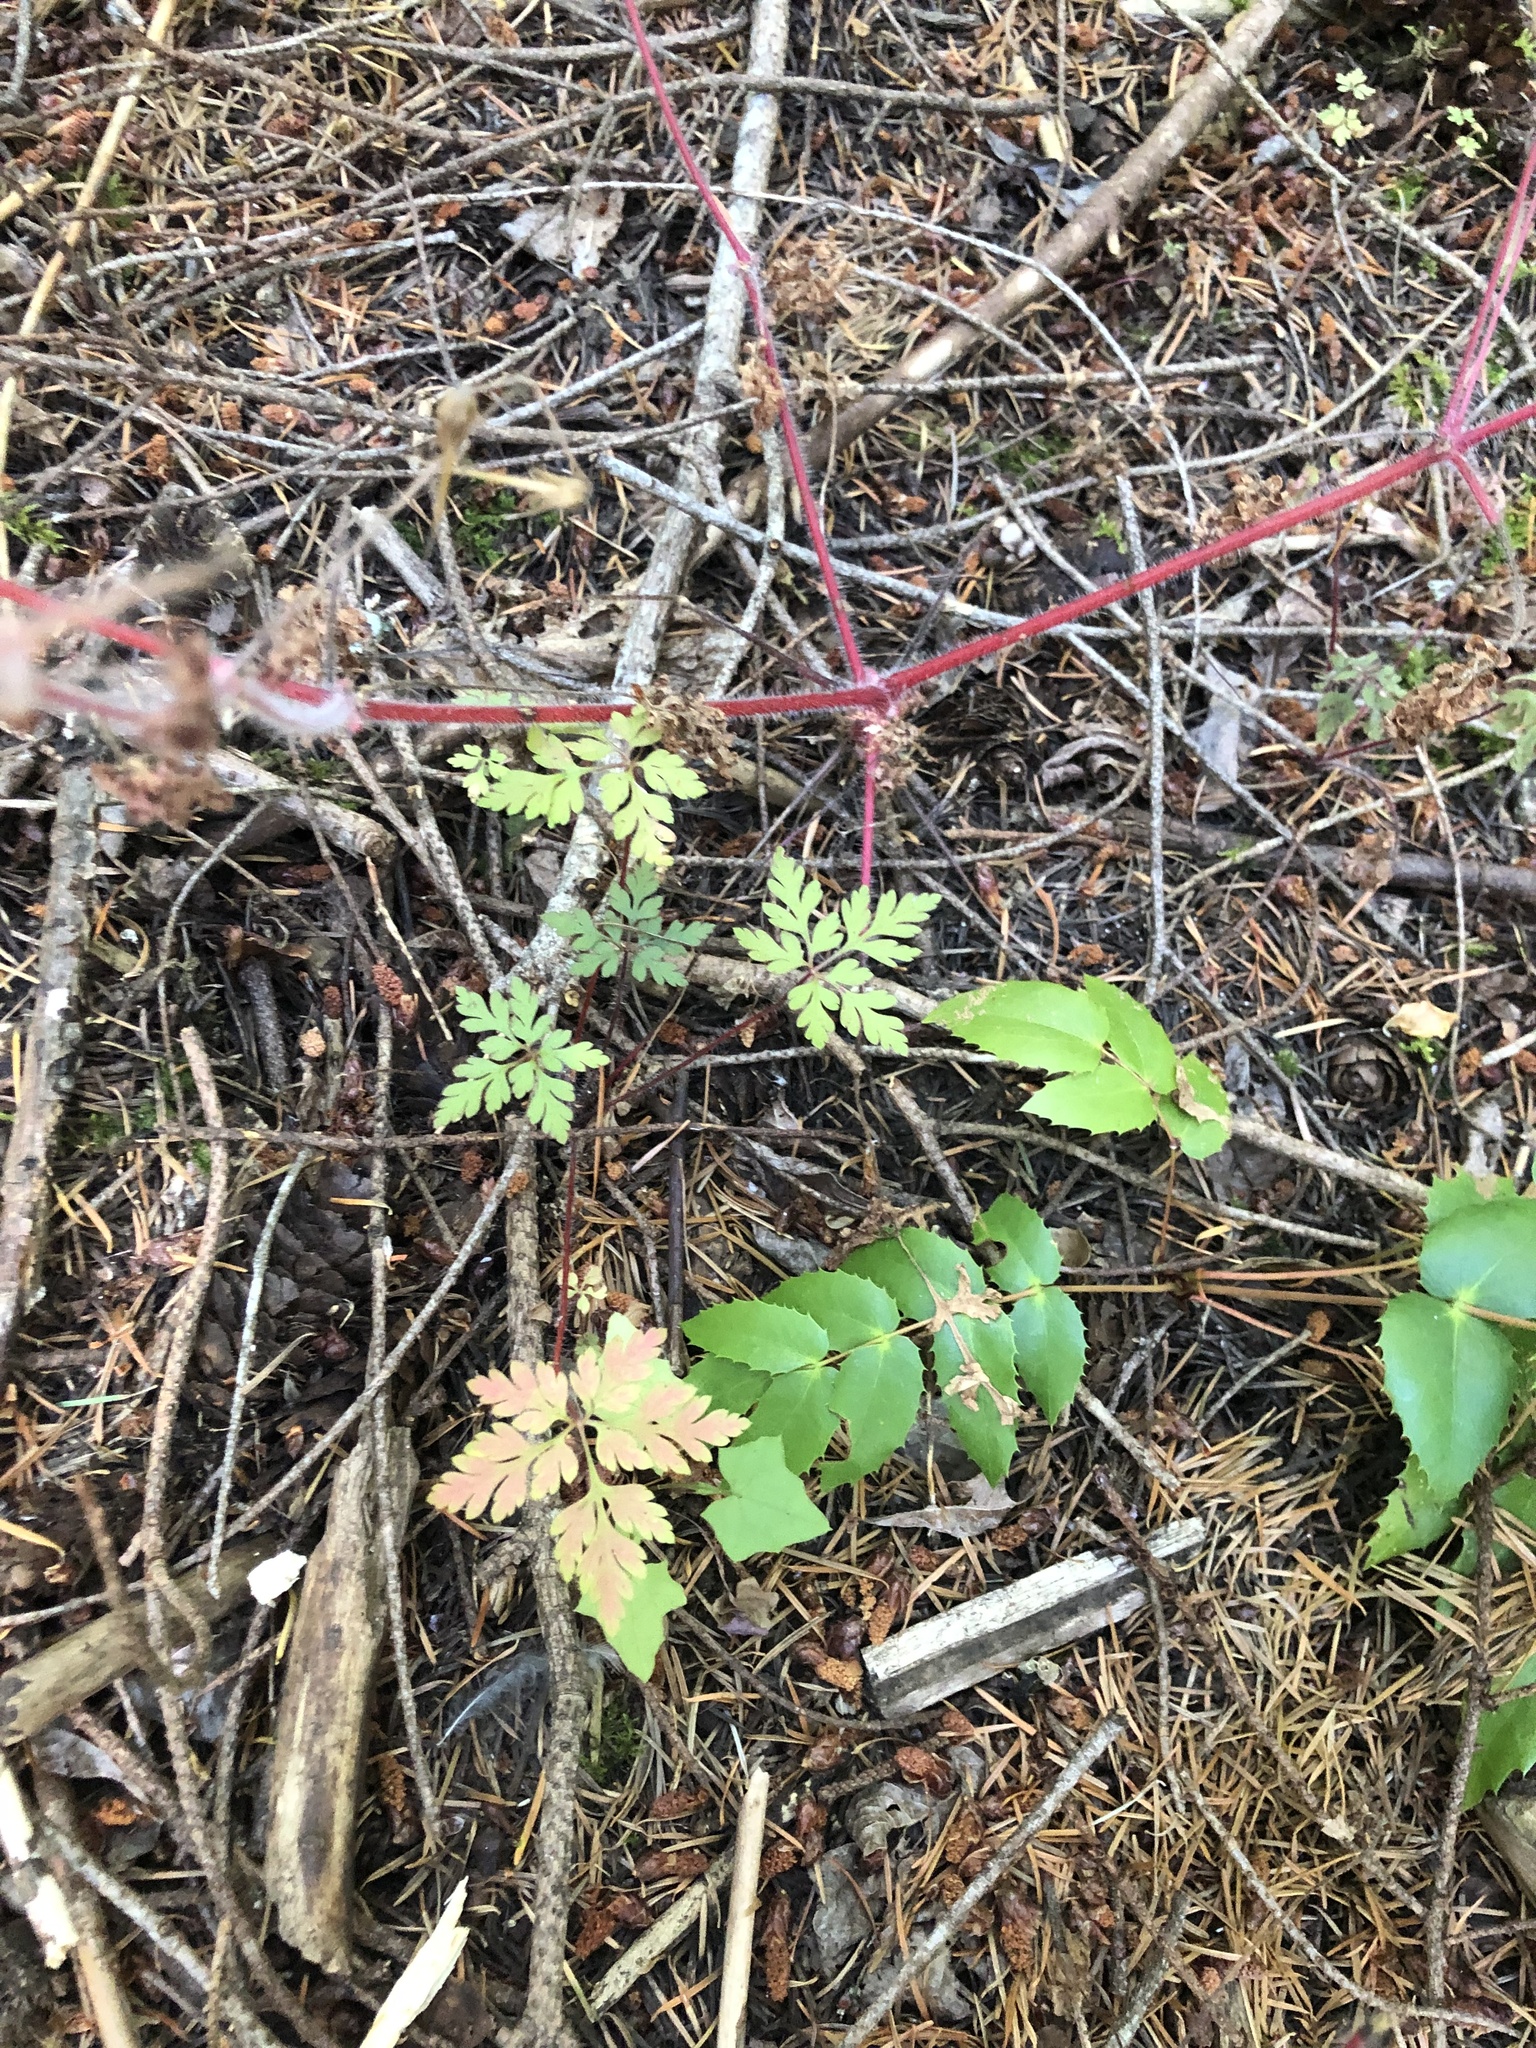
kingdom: Plantae
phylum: Tracheophyta
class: Magnoliopsida
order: Geraniales
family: Geraniaceae
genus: Geranium
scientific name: Geranium robertianum
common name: Herb-robert
